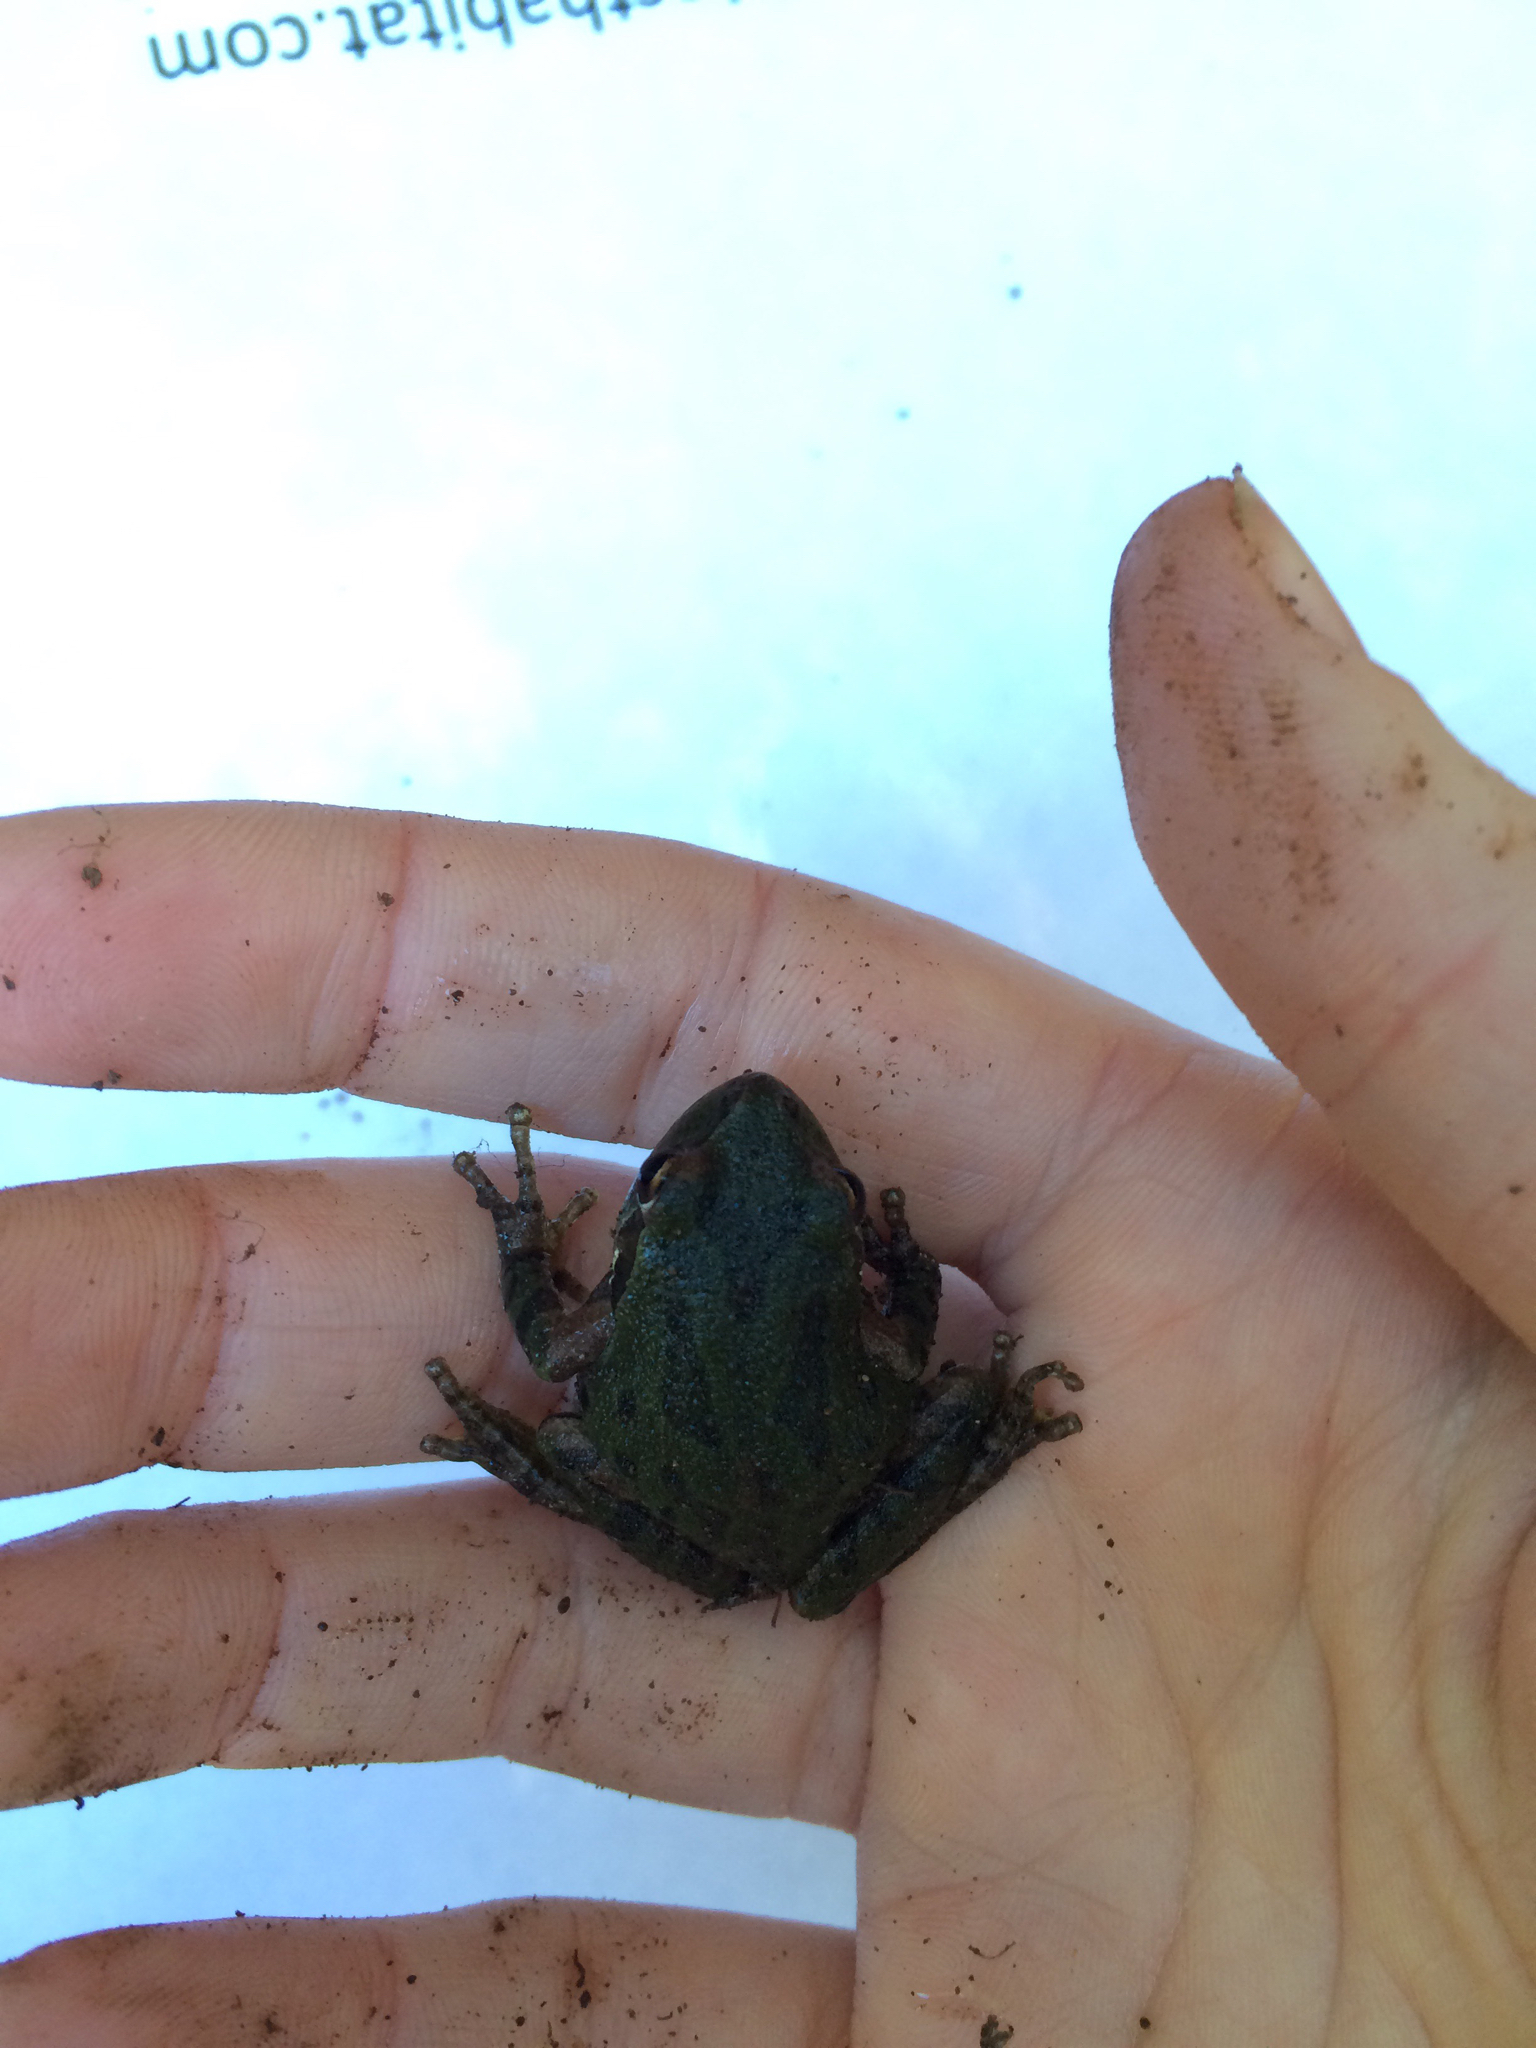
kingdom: Animalia
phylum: Chordata
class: Amphibia
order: Anura
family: Hylidae
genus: Pseudacris
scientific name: Pseudacris regilla
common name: Pacific chorus frog
